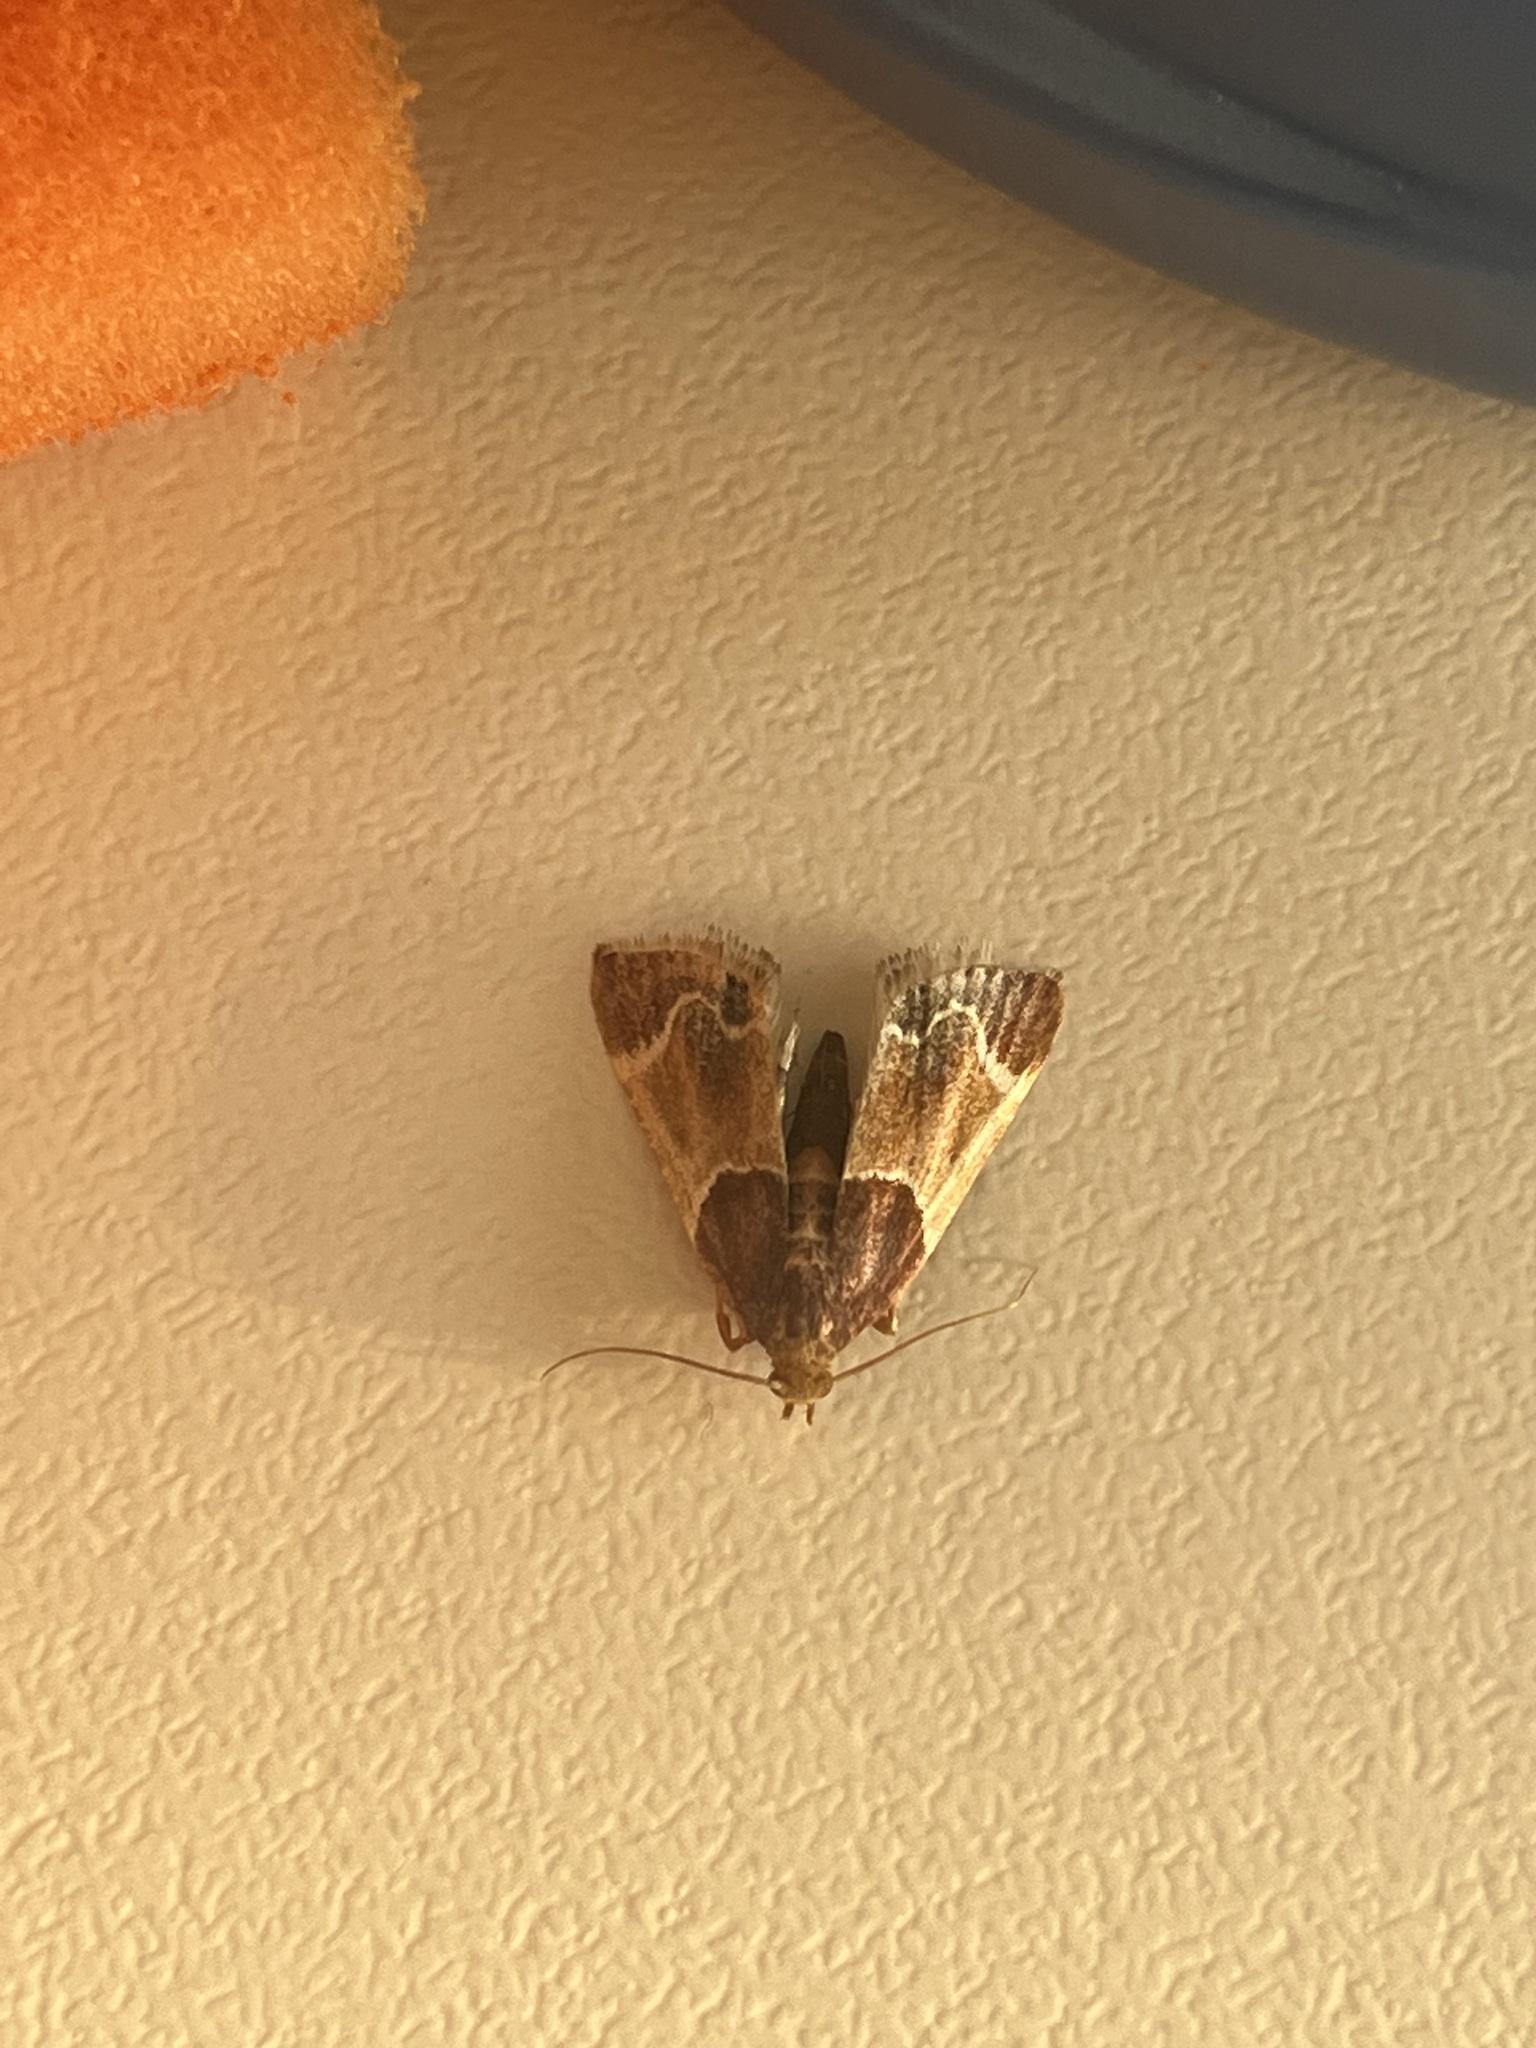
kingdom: Animalia
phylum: Arthropoda
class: Insecta
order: Lepidoptera
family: Pyralidae
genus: Pyralis
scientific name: Pyralis farinalis
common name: Meal moth
